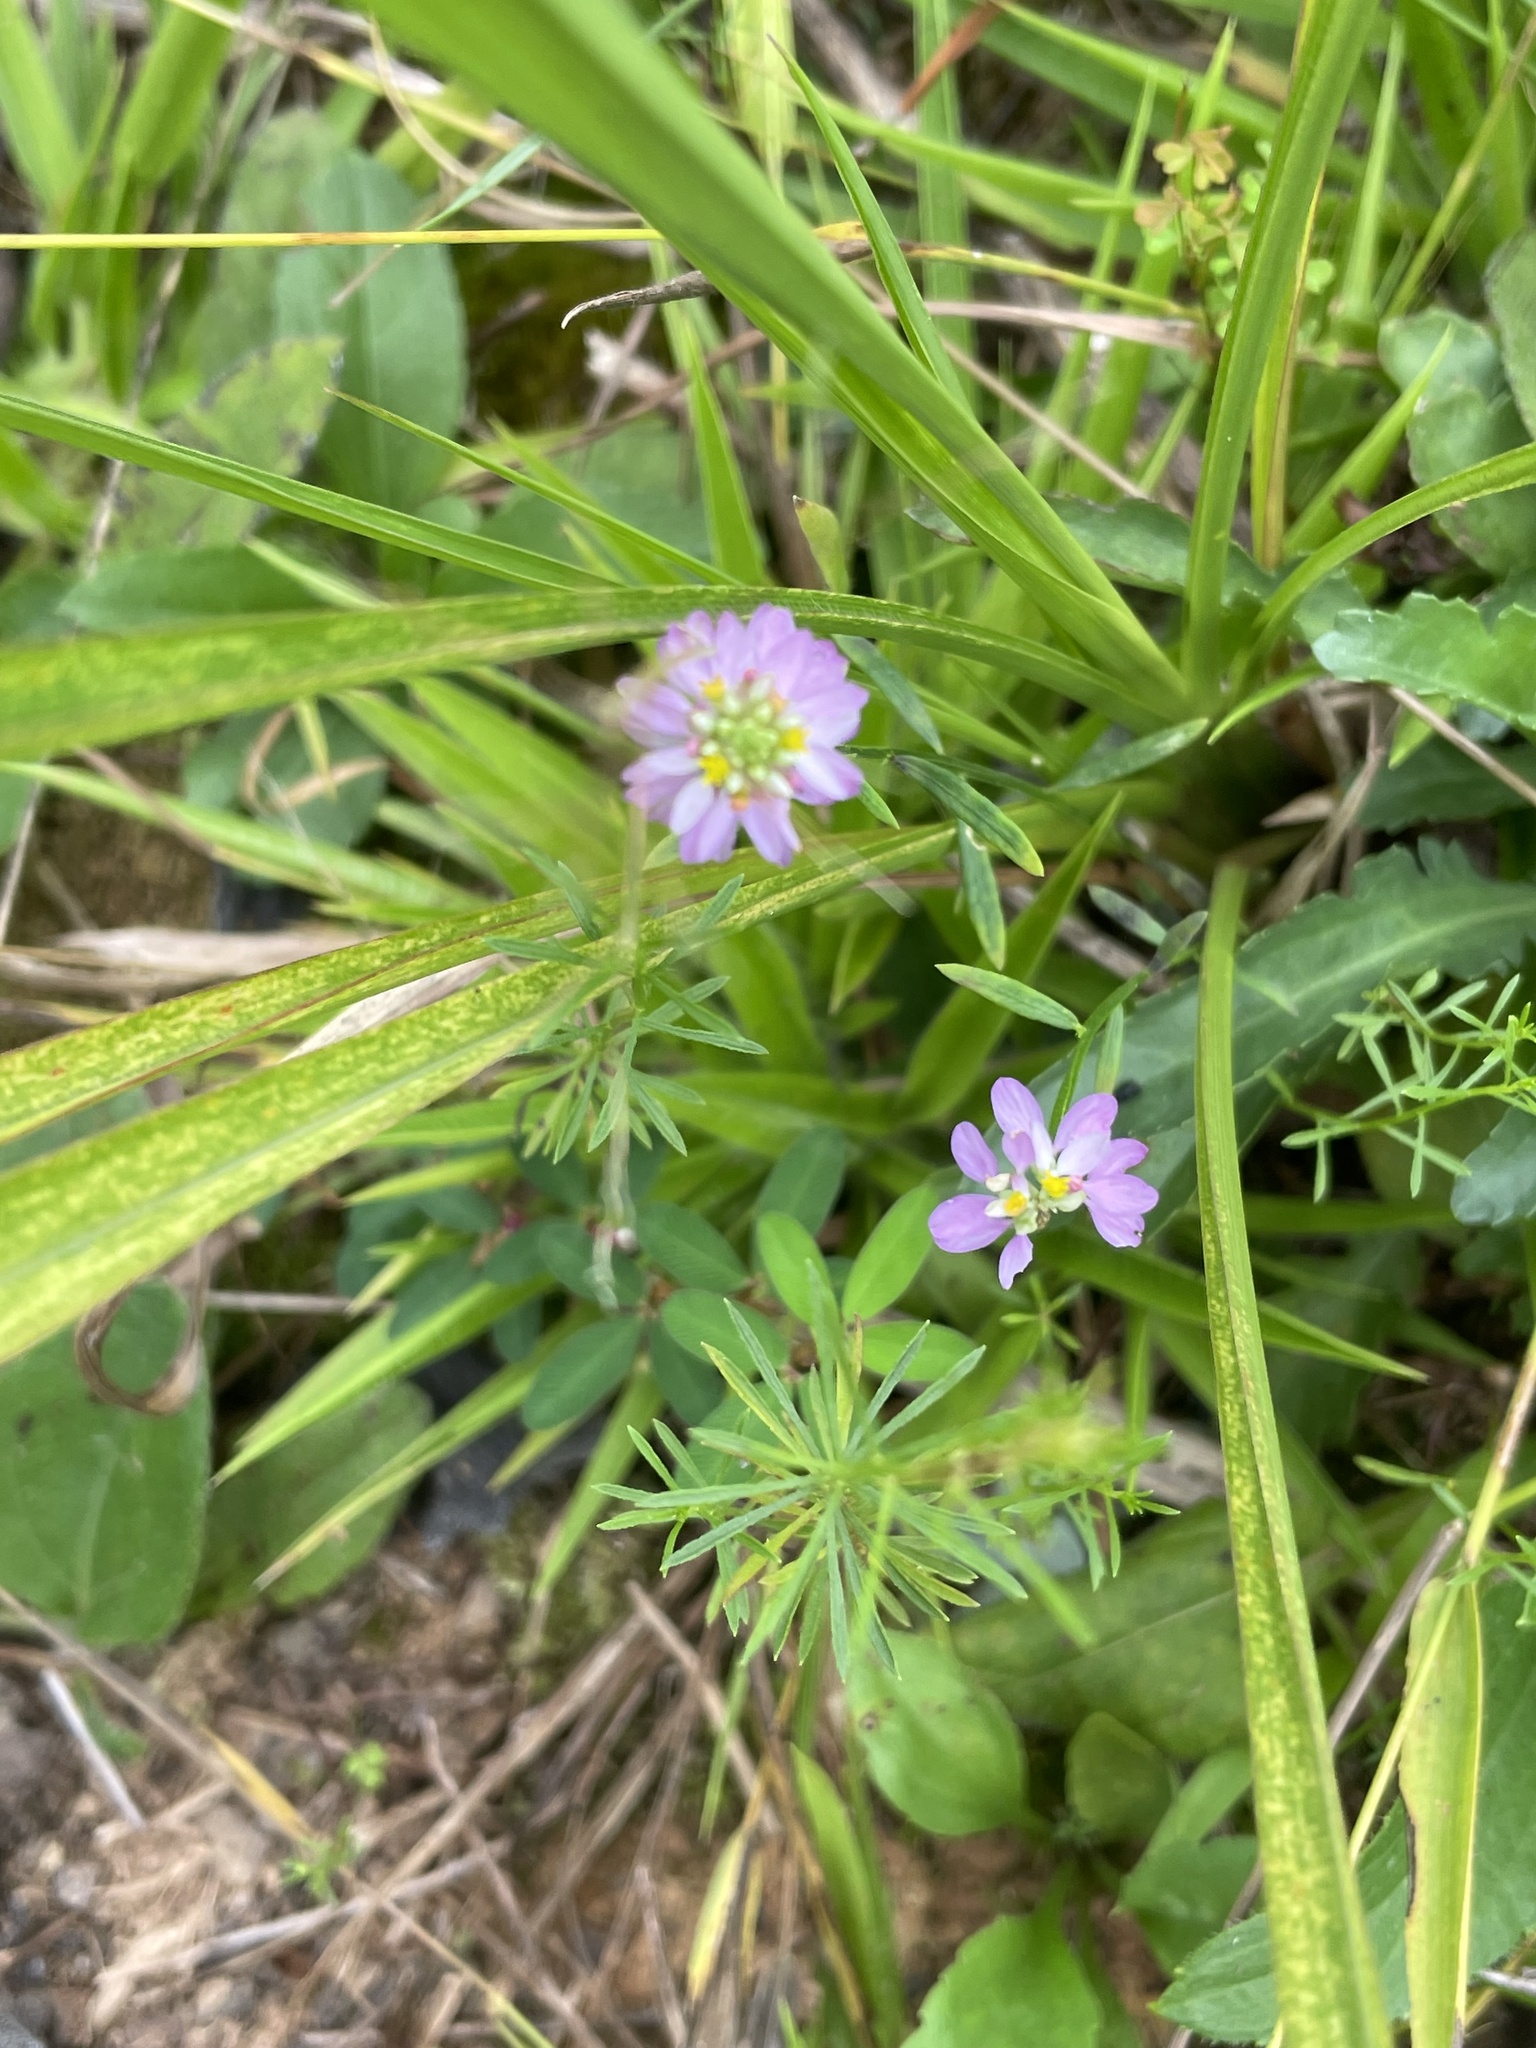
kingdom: Plantae
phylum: Tracheophyta
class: Magnoliopsida
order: Fabales
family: Polygalaceae
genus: Polygala
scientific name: Polygala curtissii
